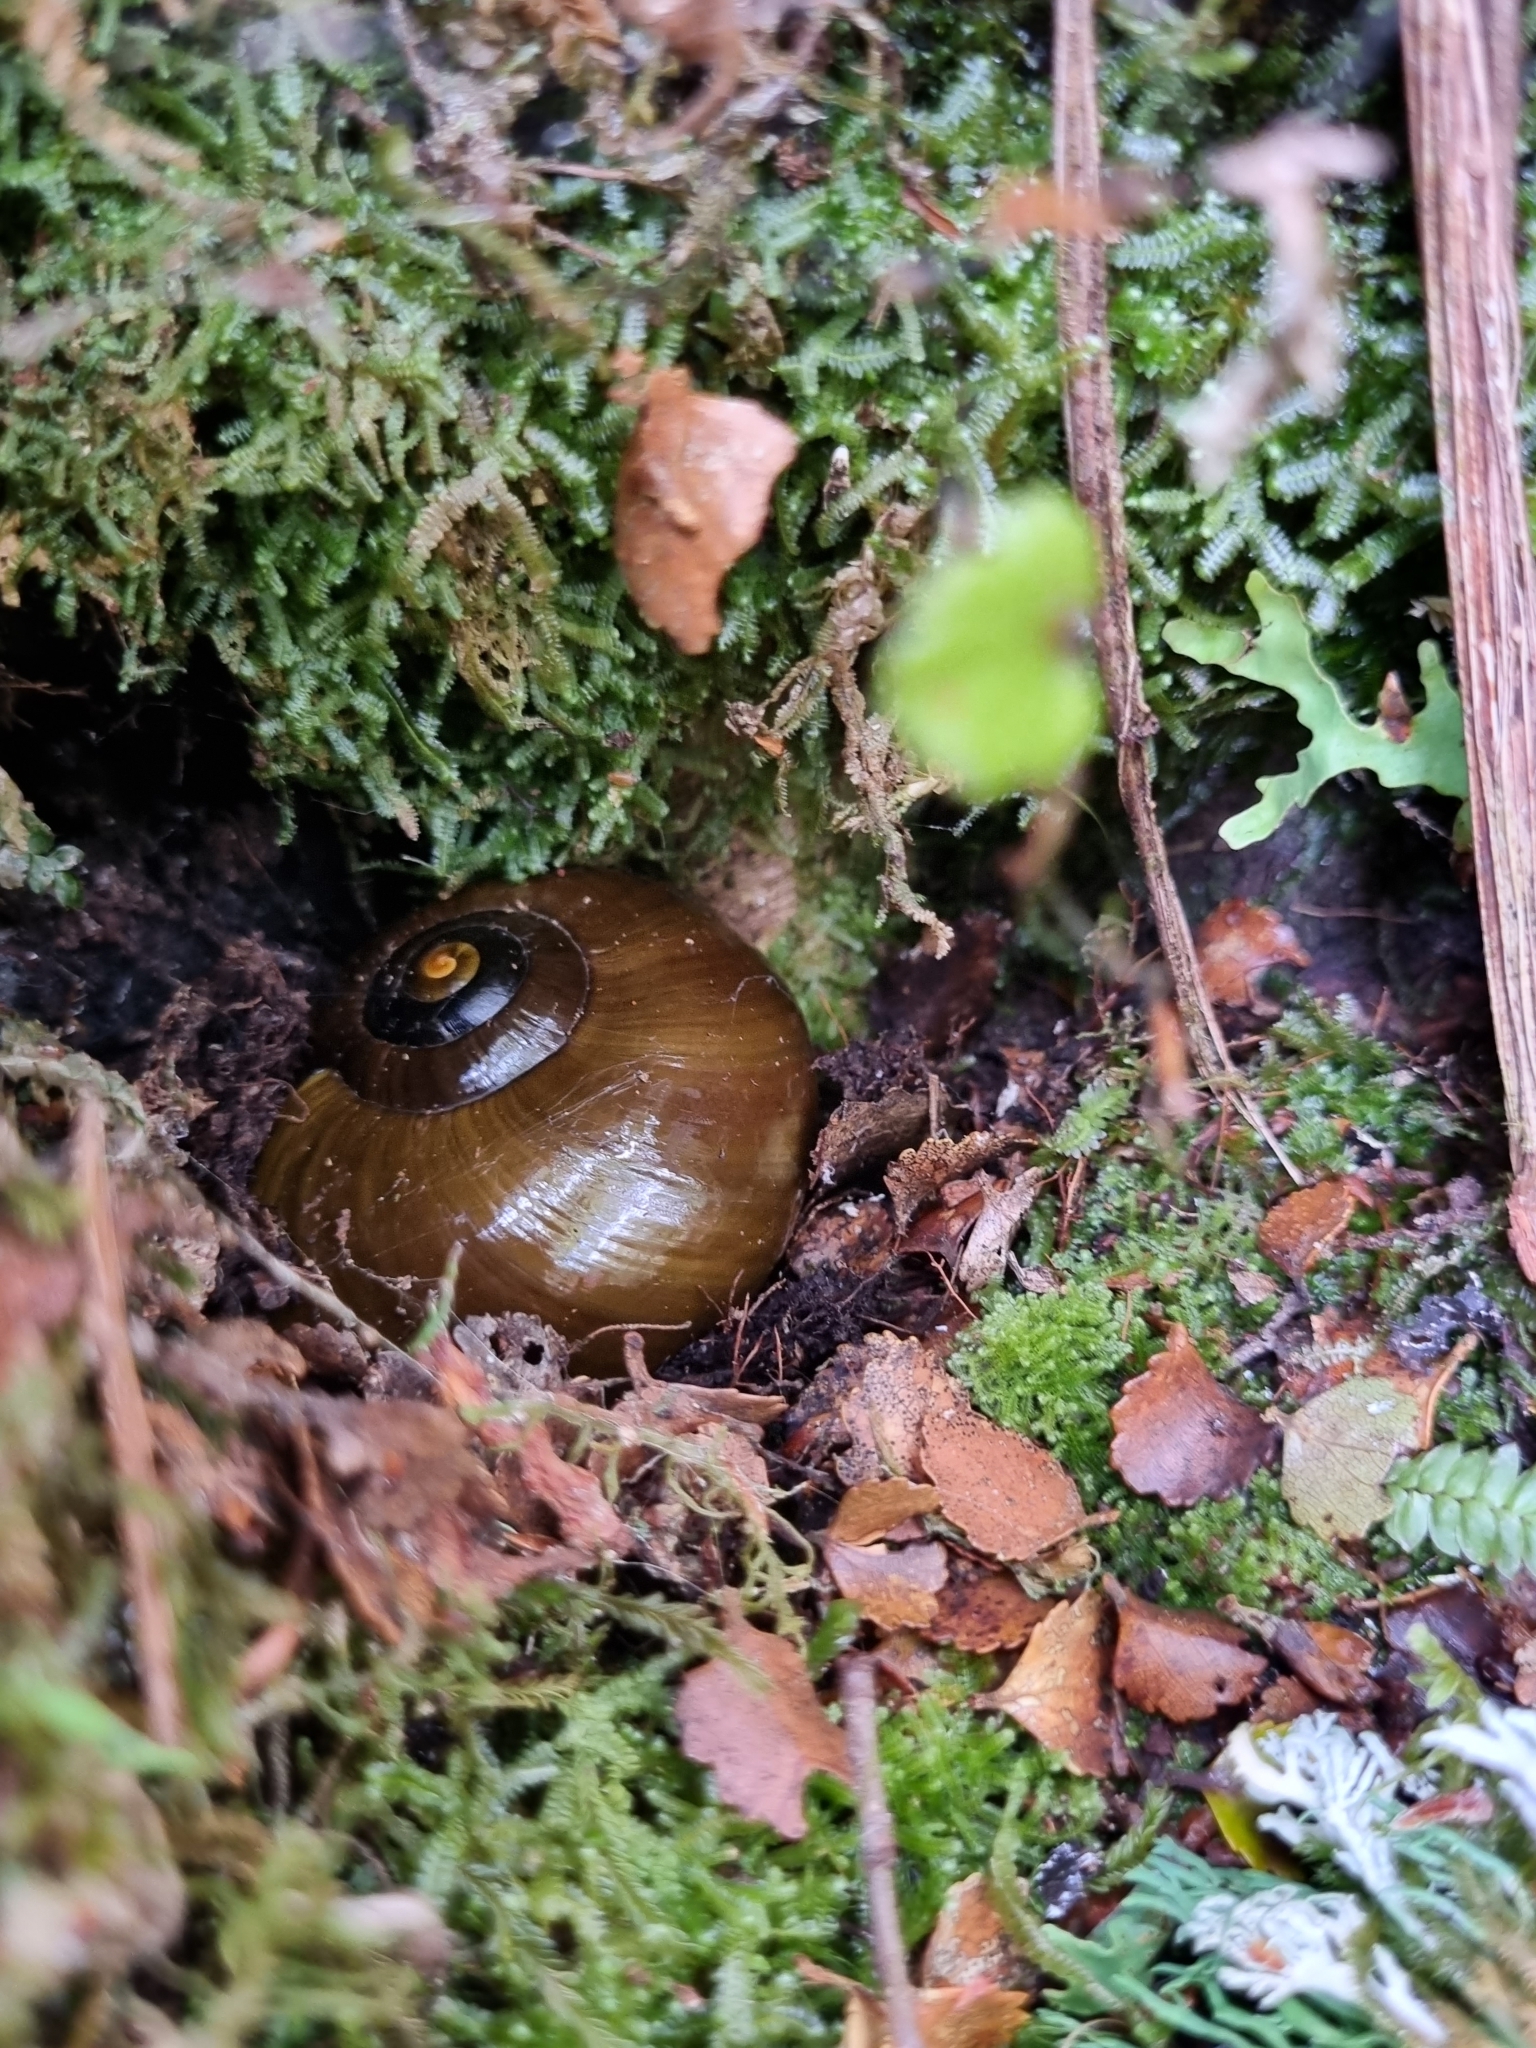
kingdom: Animalia
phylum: Mollusca
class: Gastropoda
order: Stylommatophora
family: Rhytididae
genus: Powelliphanta
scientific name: Powelliphanta superba
